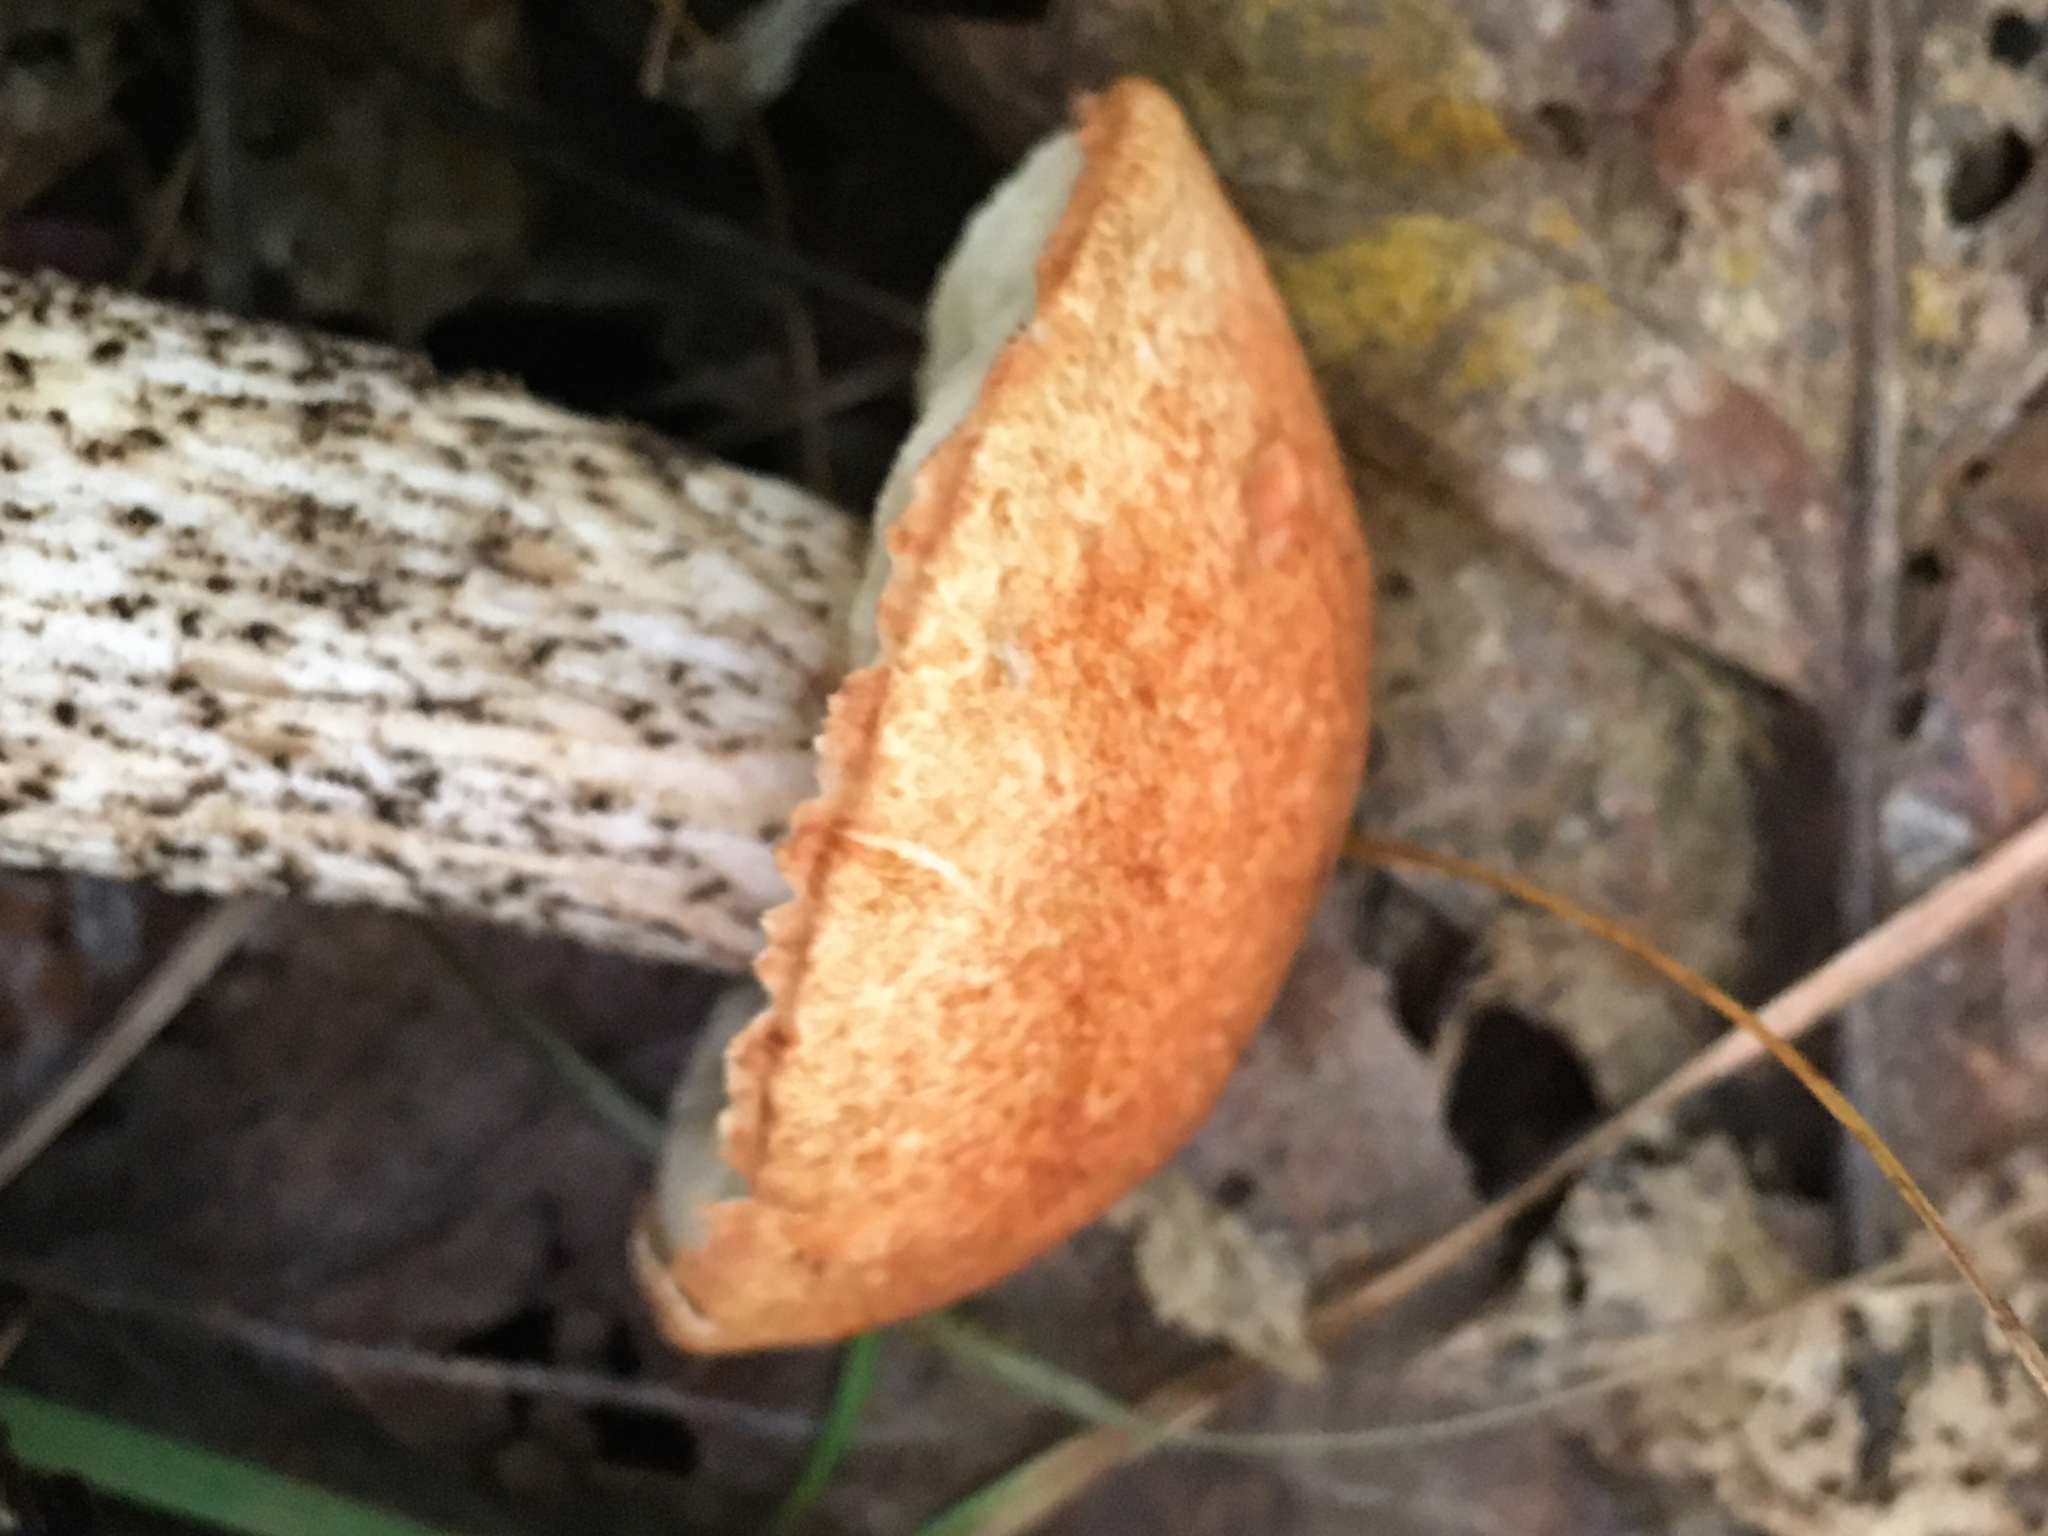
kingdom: Fungi
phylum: Basidiomycota
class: Agaricomycetes
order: Boletales
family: Boletaceae
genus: Leccinum
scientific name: Leccinum aurantiacum
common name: Orange bolete
